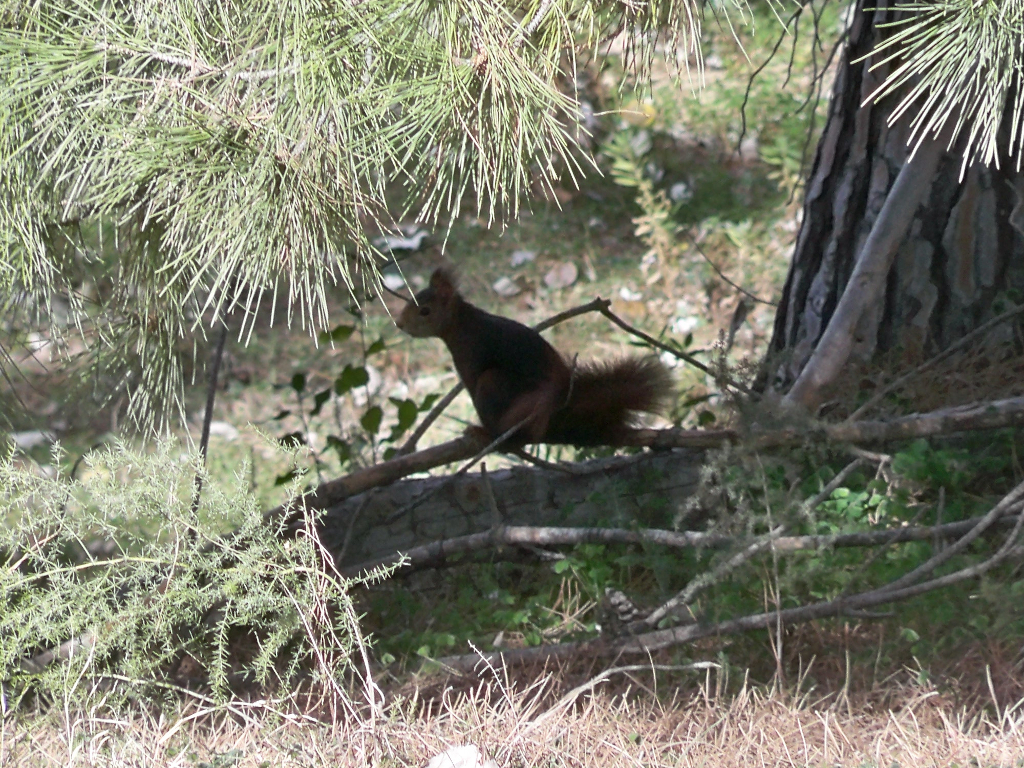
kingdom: Animalia
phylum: Chordata
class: Mammalia
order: Rodentia
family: Sciuridae
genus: Sciurus
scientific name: Sciurus vulgaris
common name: Eurasian red squirrel
